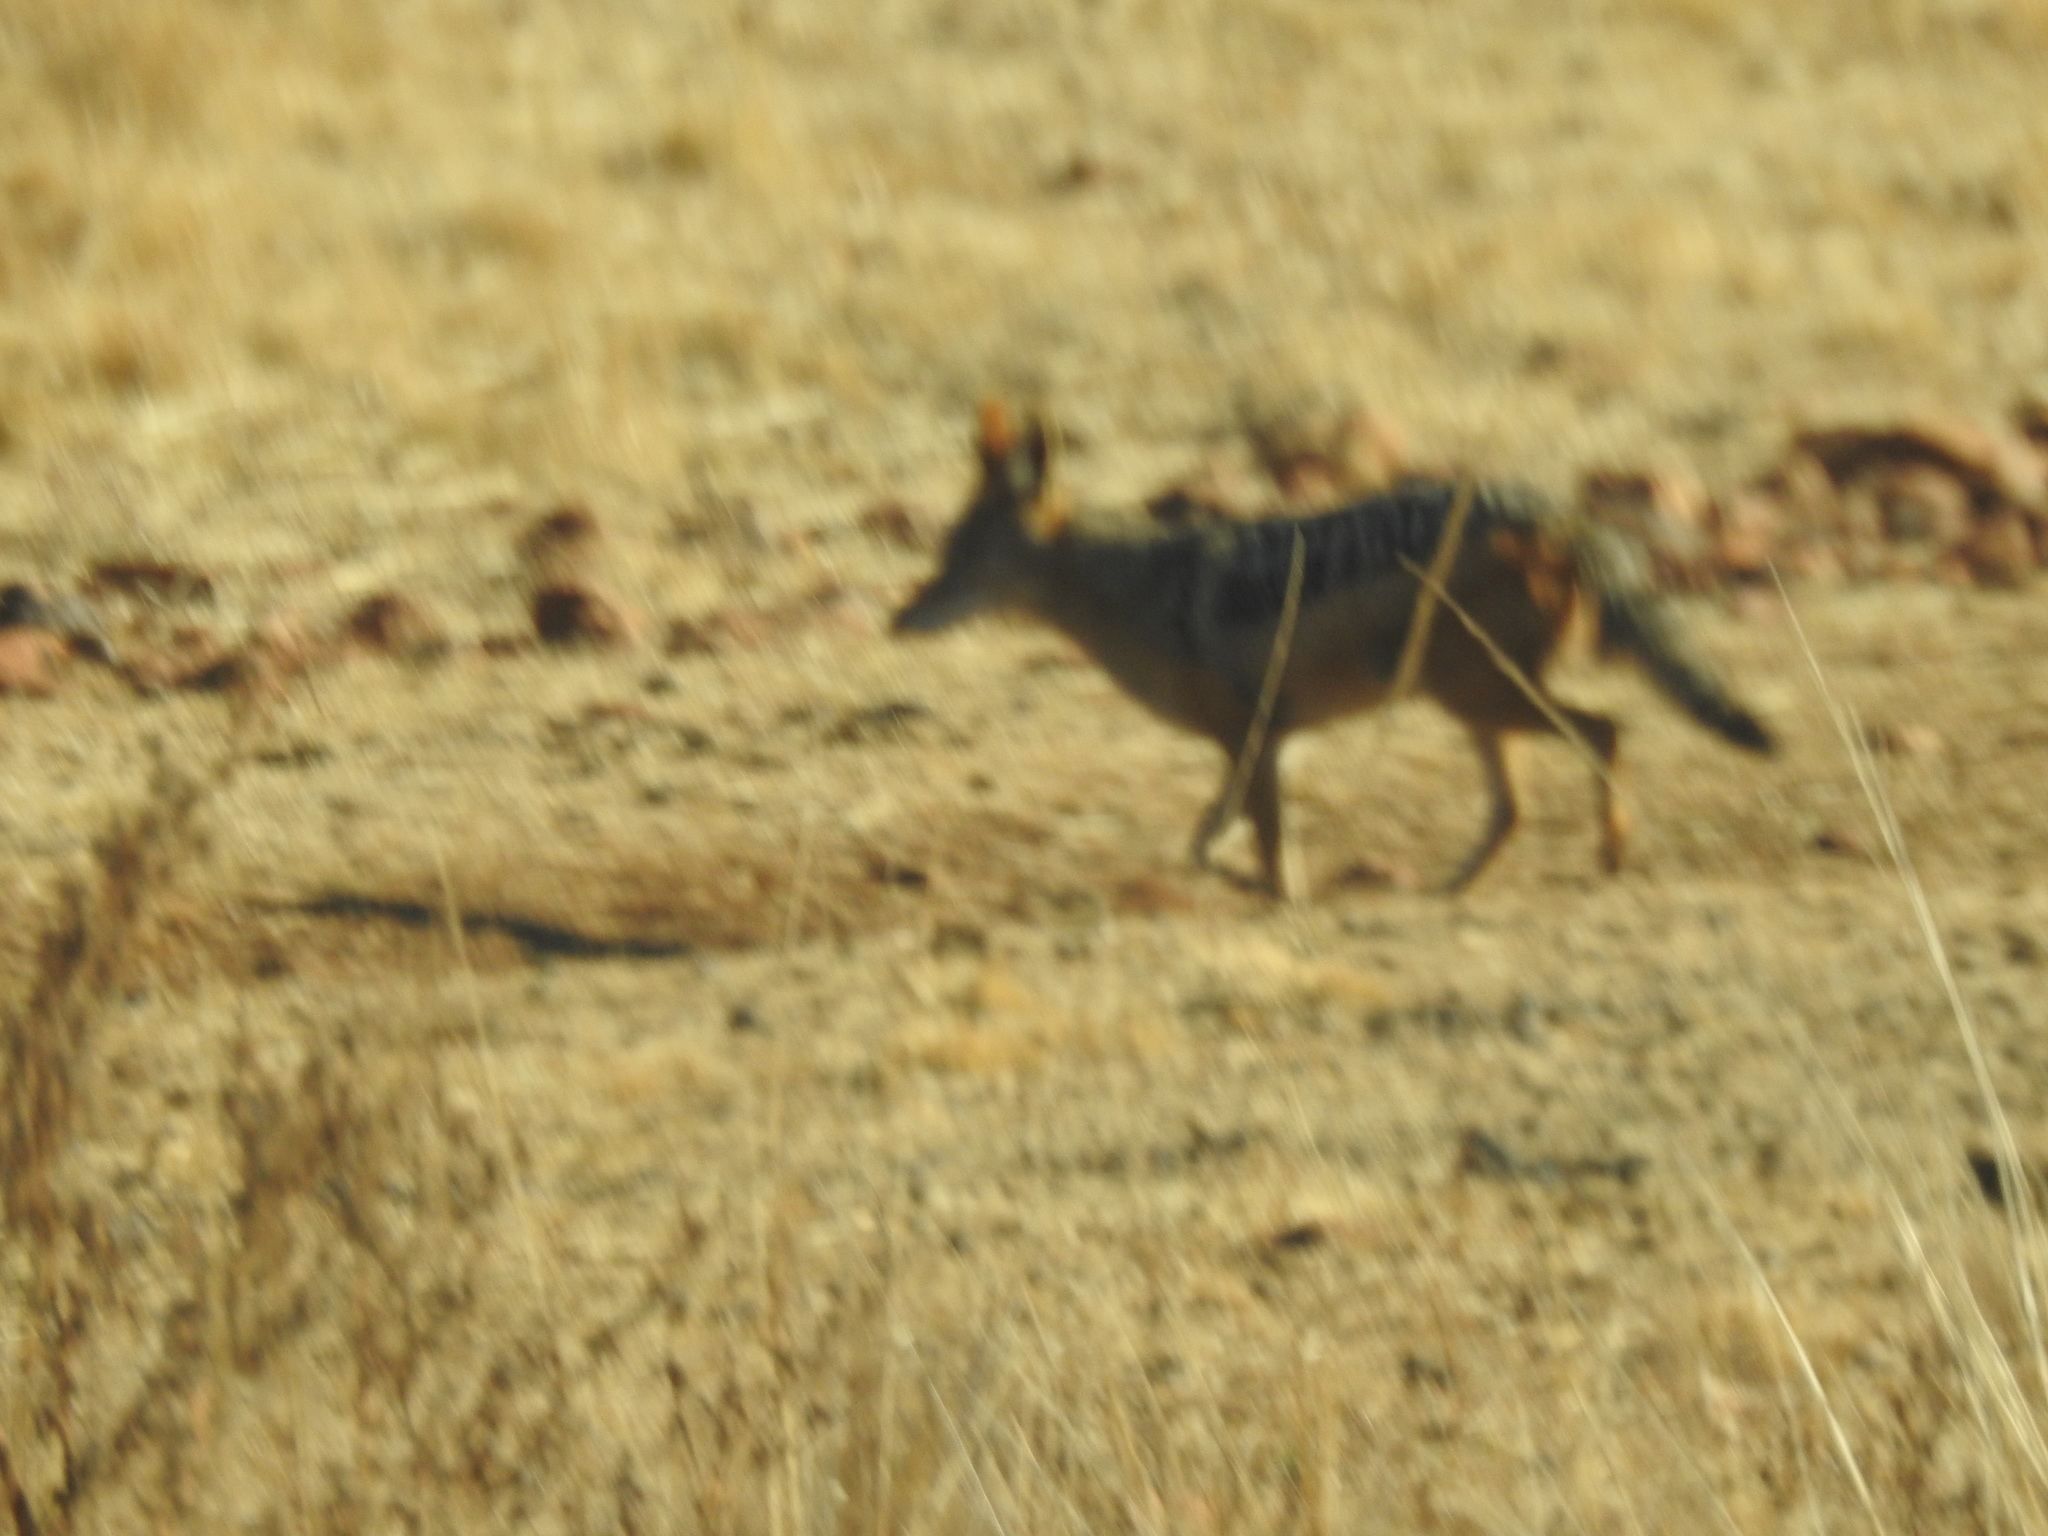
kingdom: Animalia
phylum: Chordata
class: Mammalia
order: Carnivora
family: Canidae
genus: Lupulella
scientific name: Lupulella
